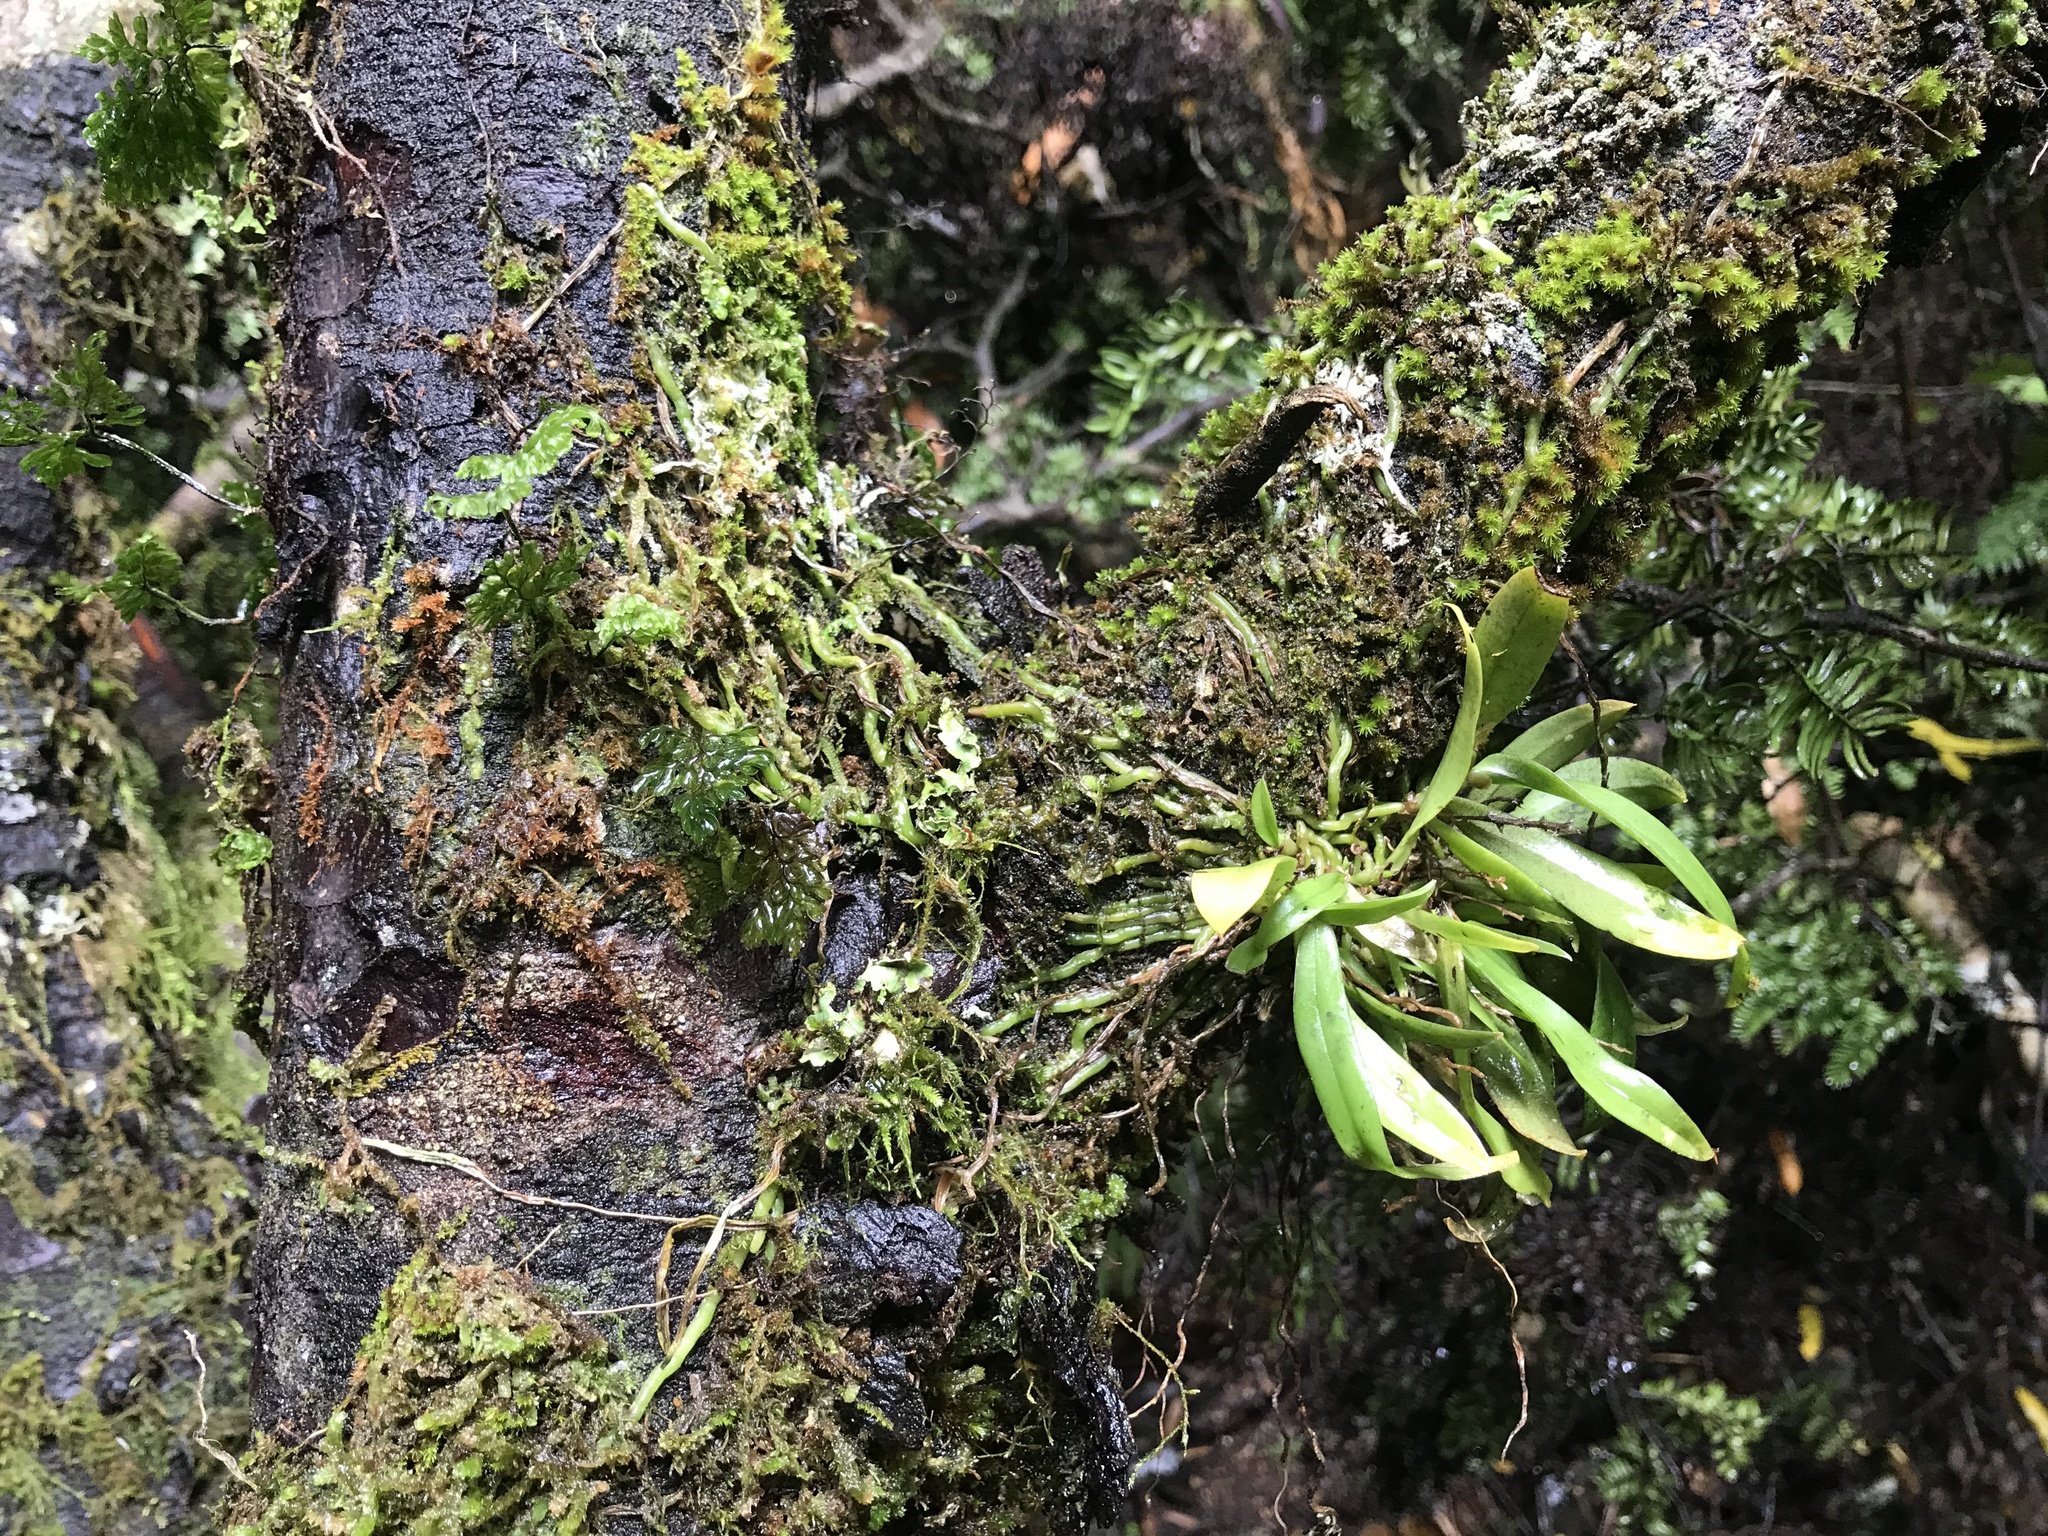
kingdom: Plantae
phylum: Tracheophyta
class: Liliopsida
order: Asparagales
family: Orchidaceae
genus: Drymoanthus
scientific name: Drymoanthus adversus
